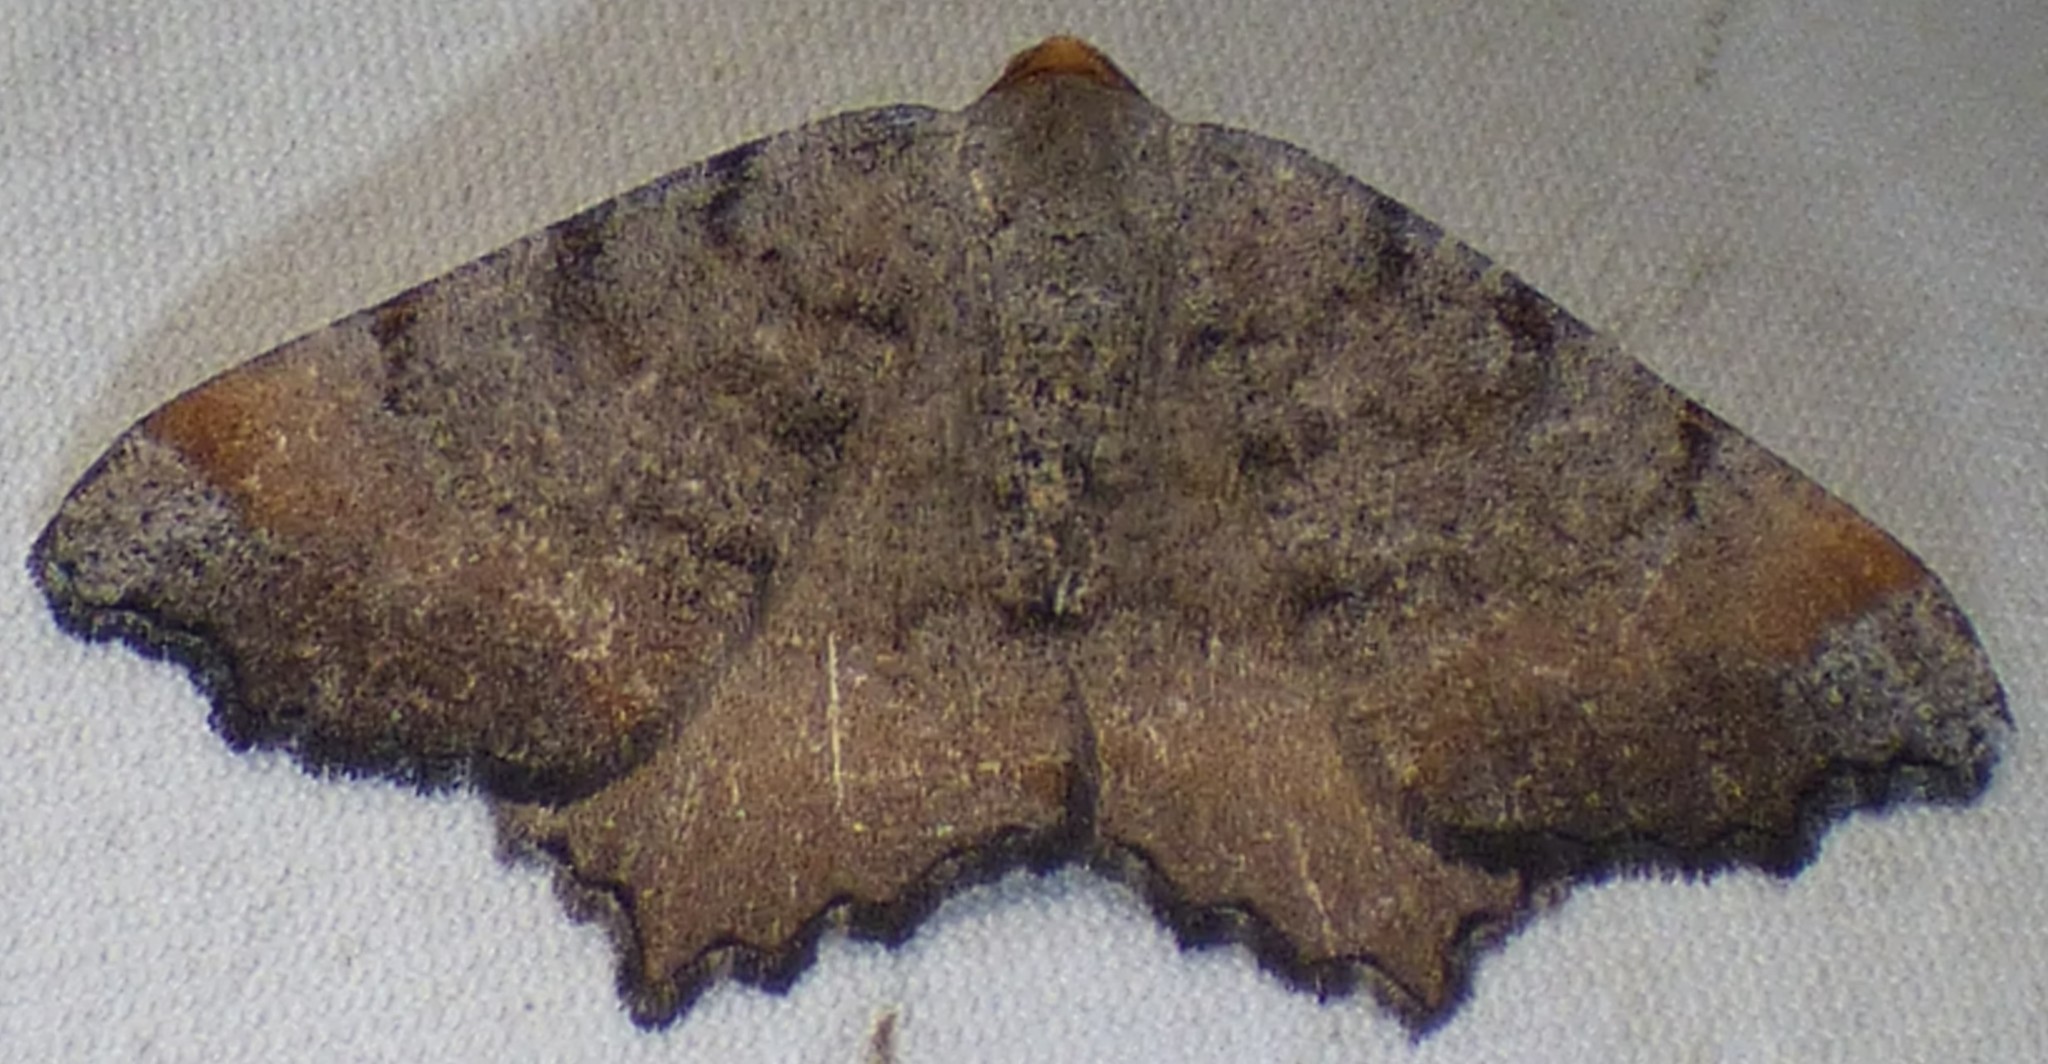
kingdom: Animalia
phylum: Arthropoda
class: Insecta
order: Lepidoptera
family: Geometridae
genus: Macaria
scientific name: Macaria bicolorata
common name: Dingy angle
